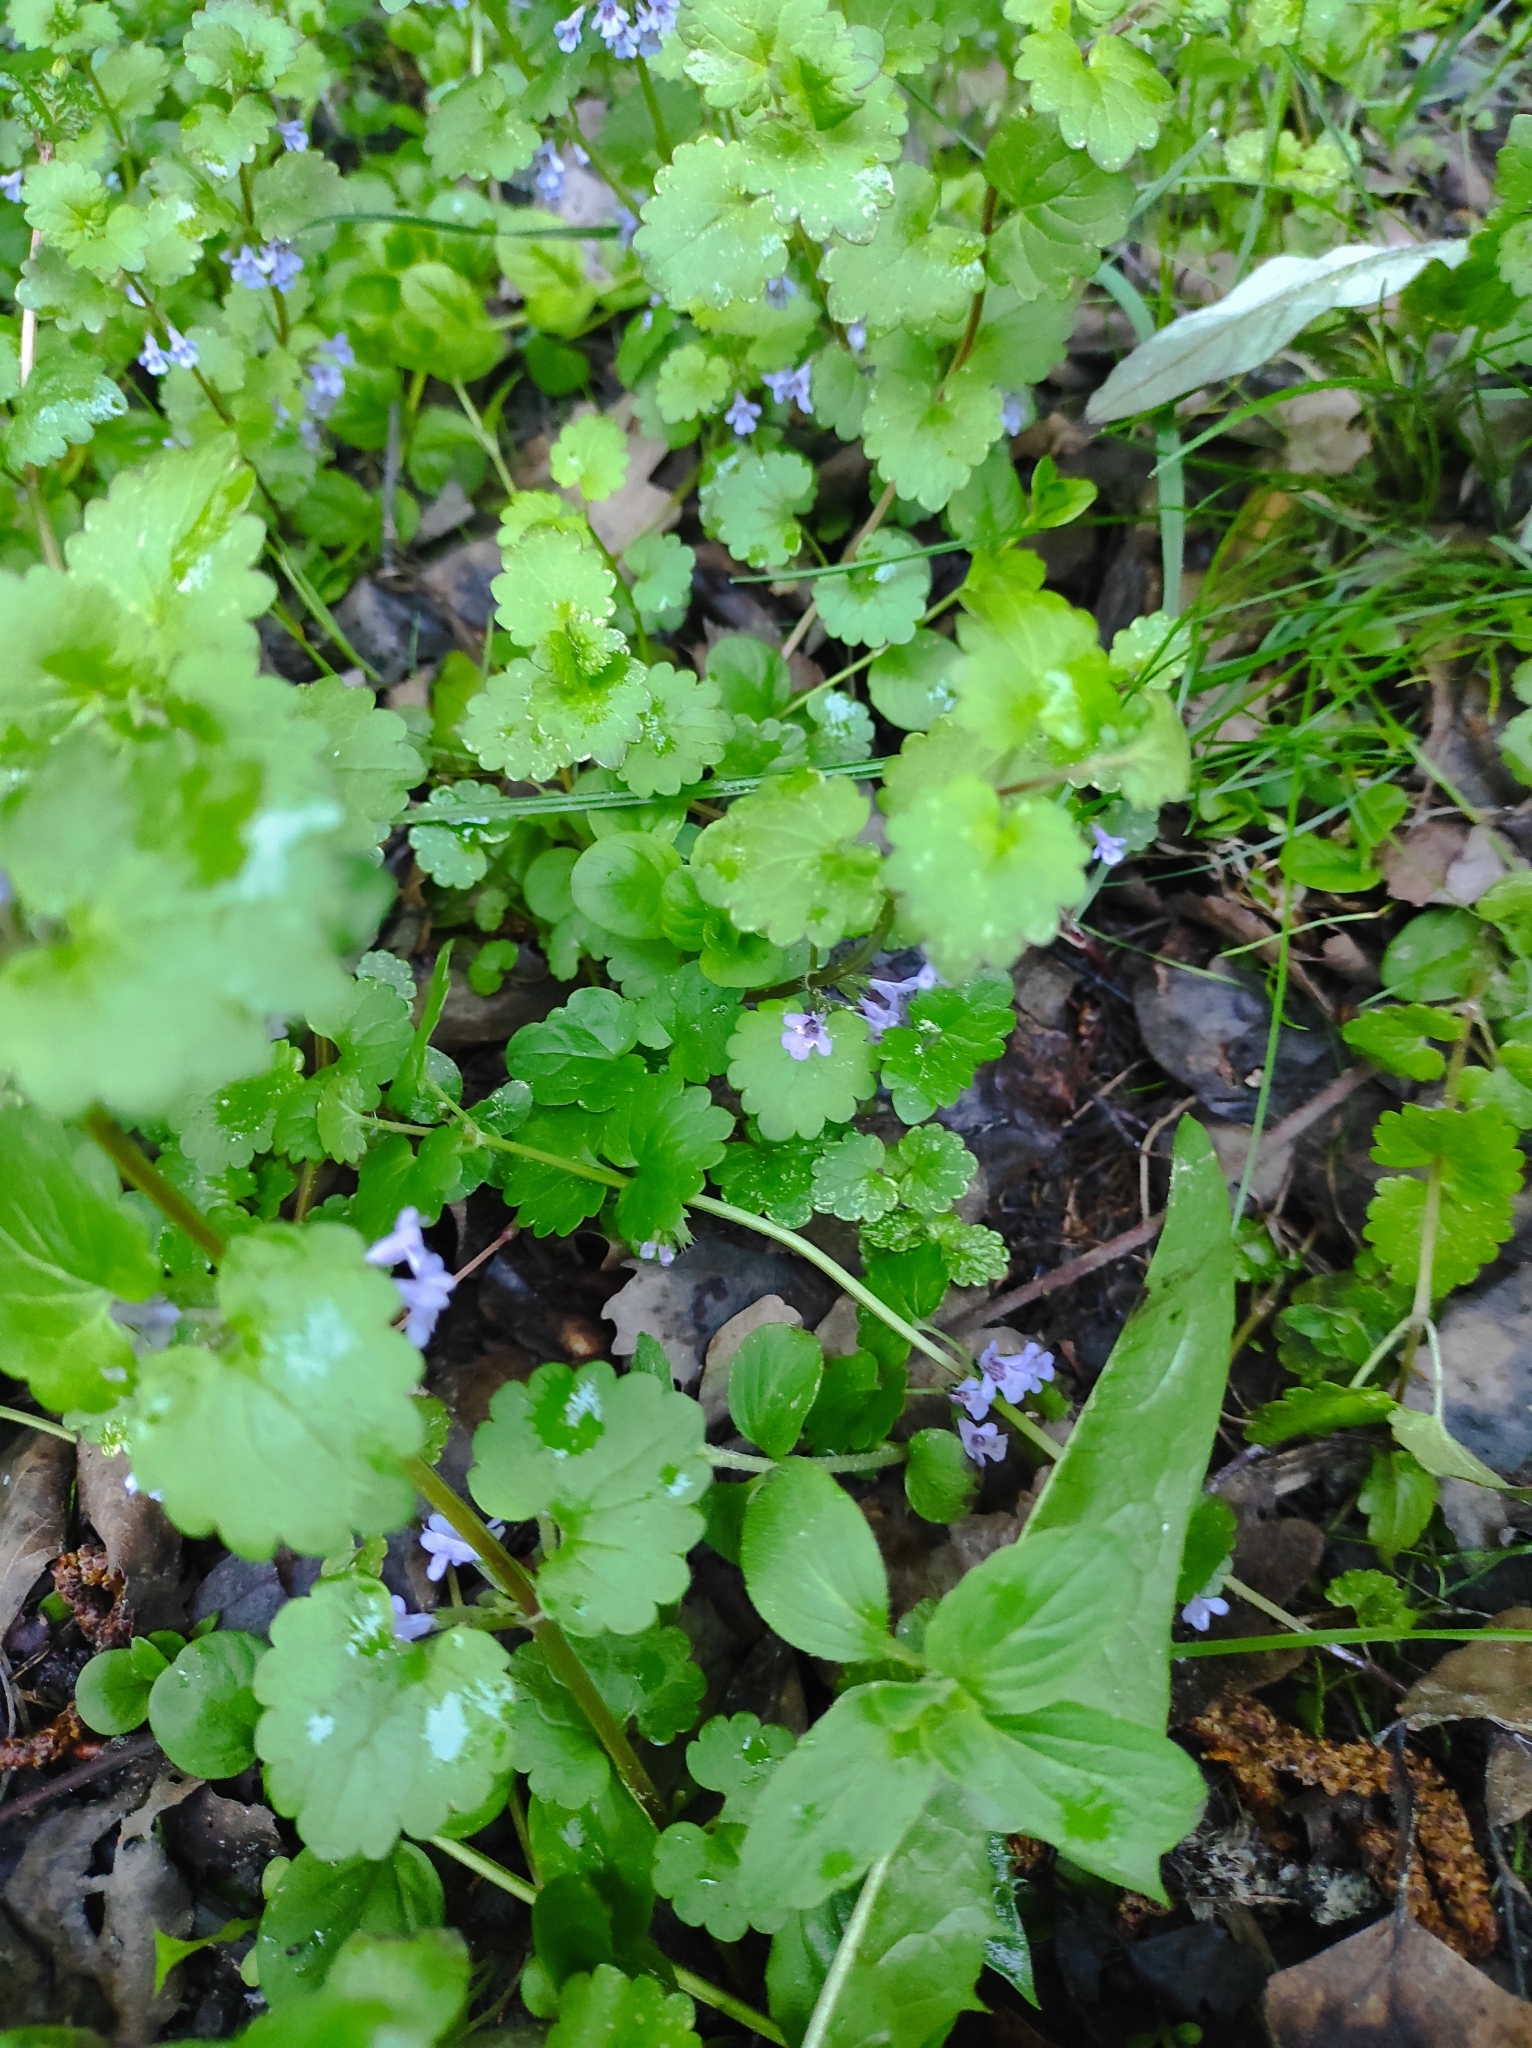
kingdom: Plantae
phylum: Tracheophyta
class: Magnoliopsida
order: Lamiales
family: Lamiaceae
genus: Glechoma
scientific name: Glechoma hederacea
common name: Ground ivy
